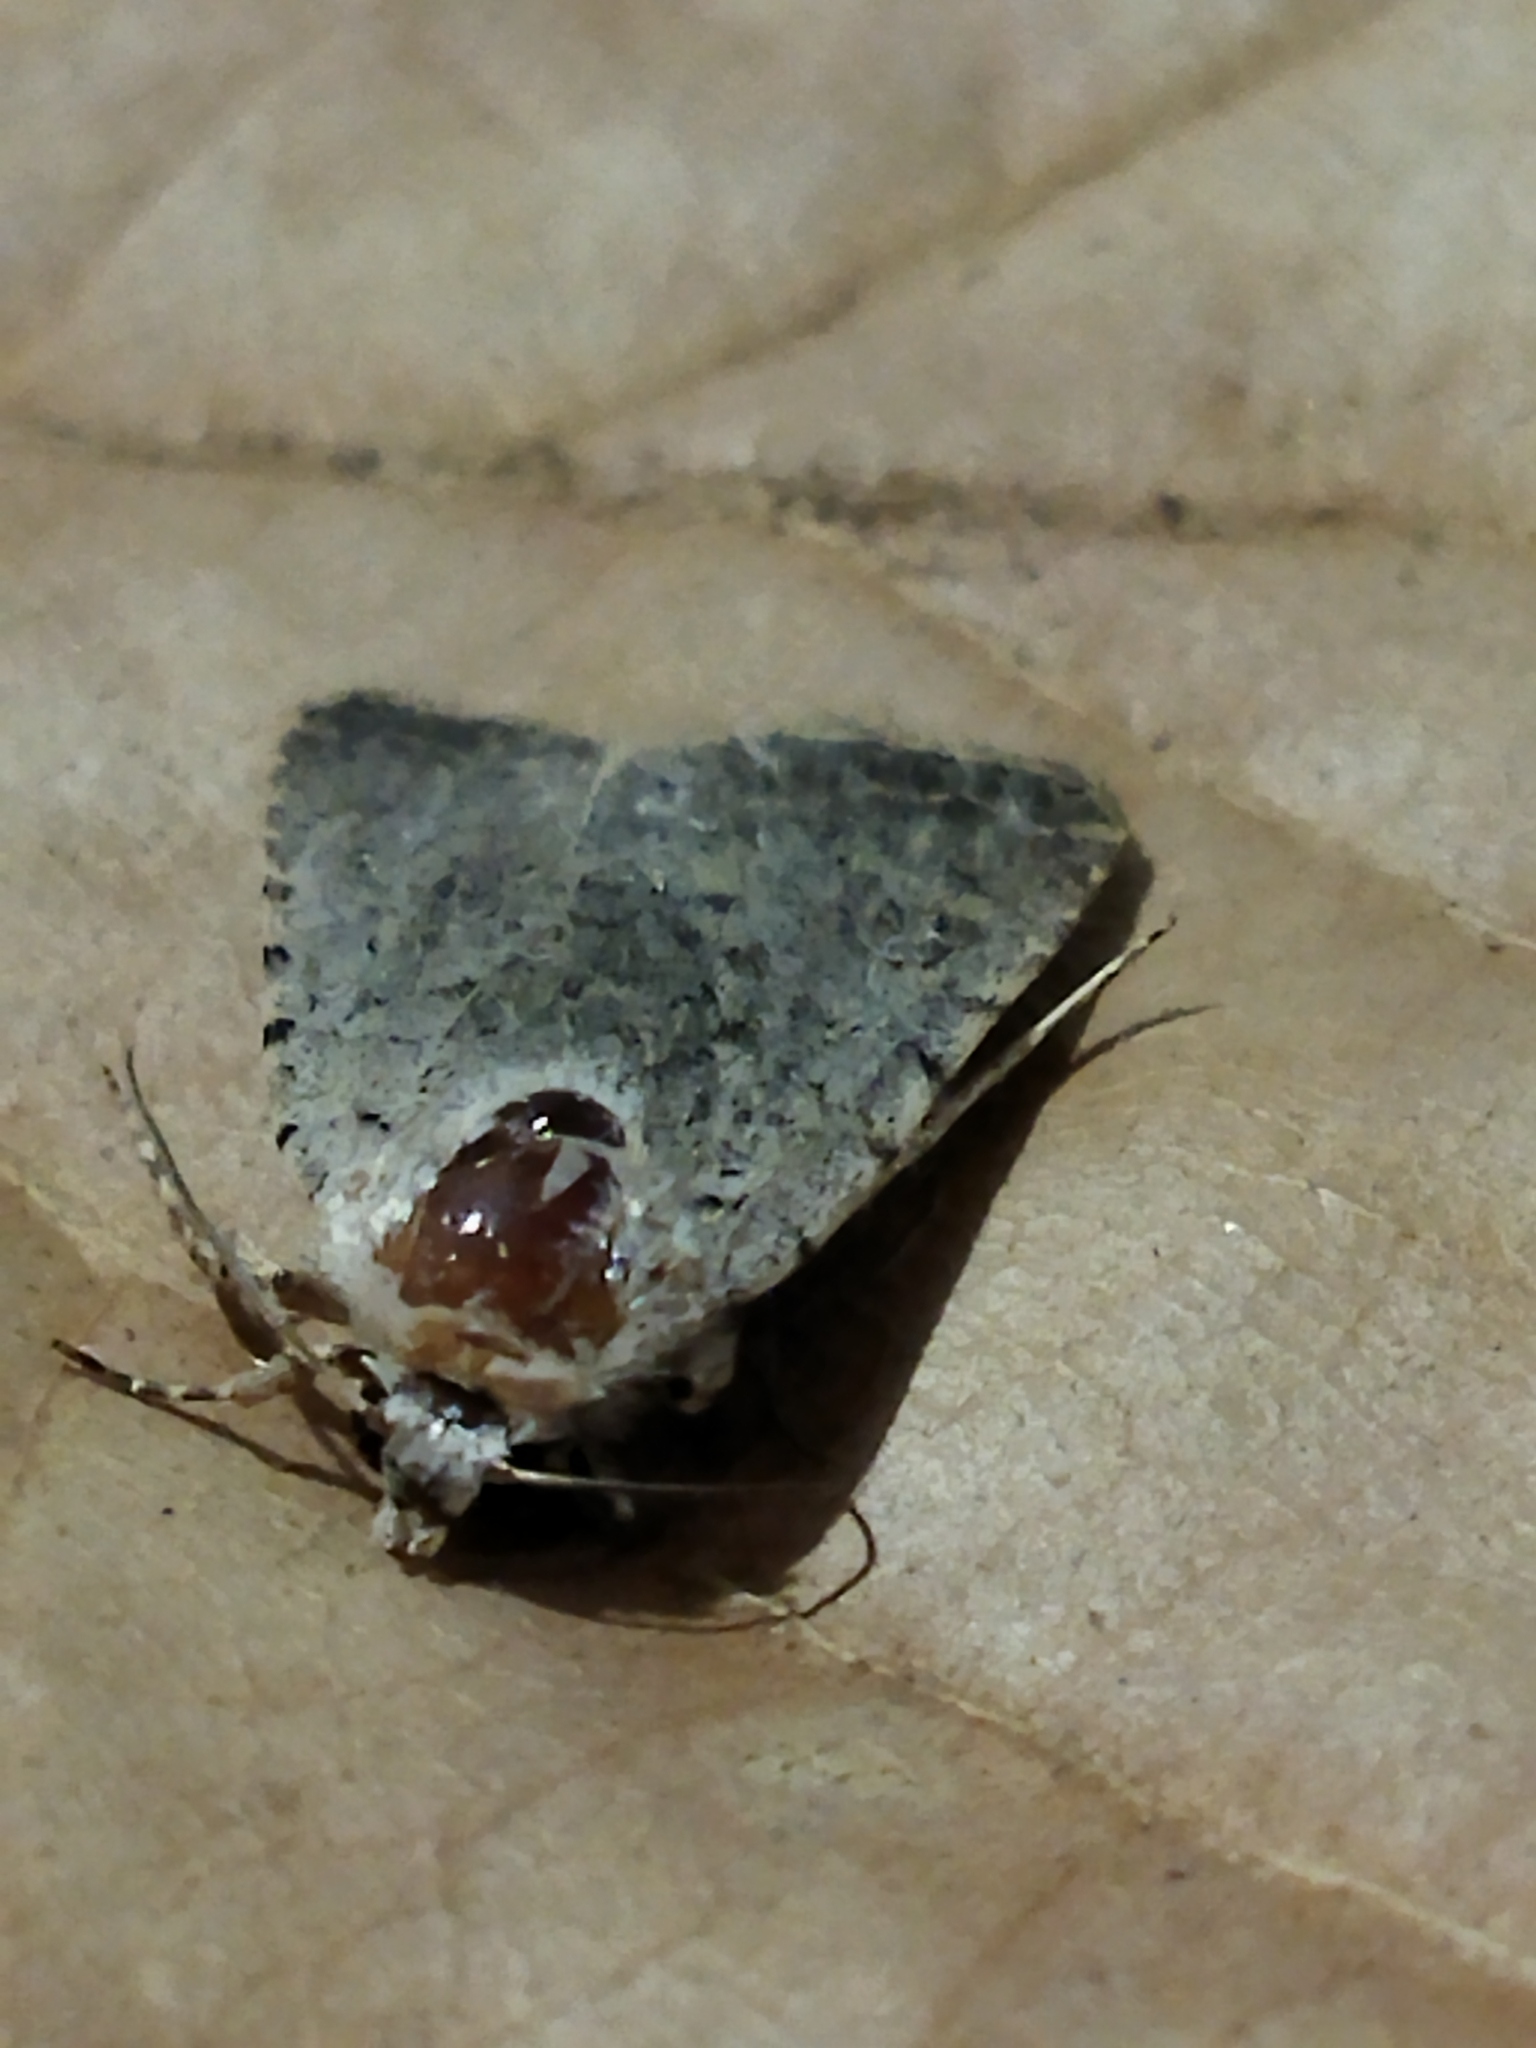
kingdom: Animalia
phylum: Arthropoda
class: Insecta
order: Lepidoptera
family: Noctuidae
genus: Caradrina
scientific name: Caradrina clavipalpis
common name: Pale mottled willow
